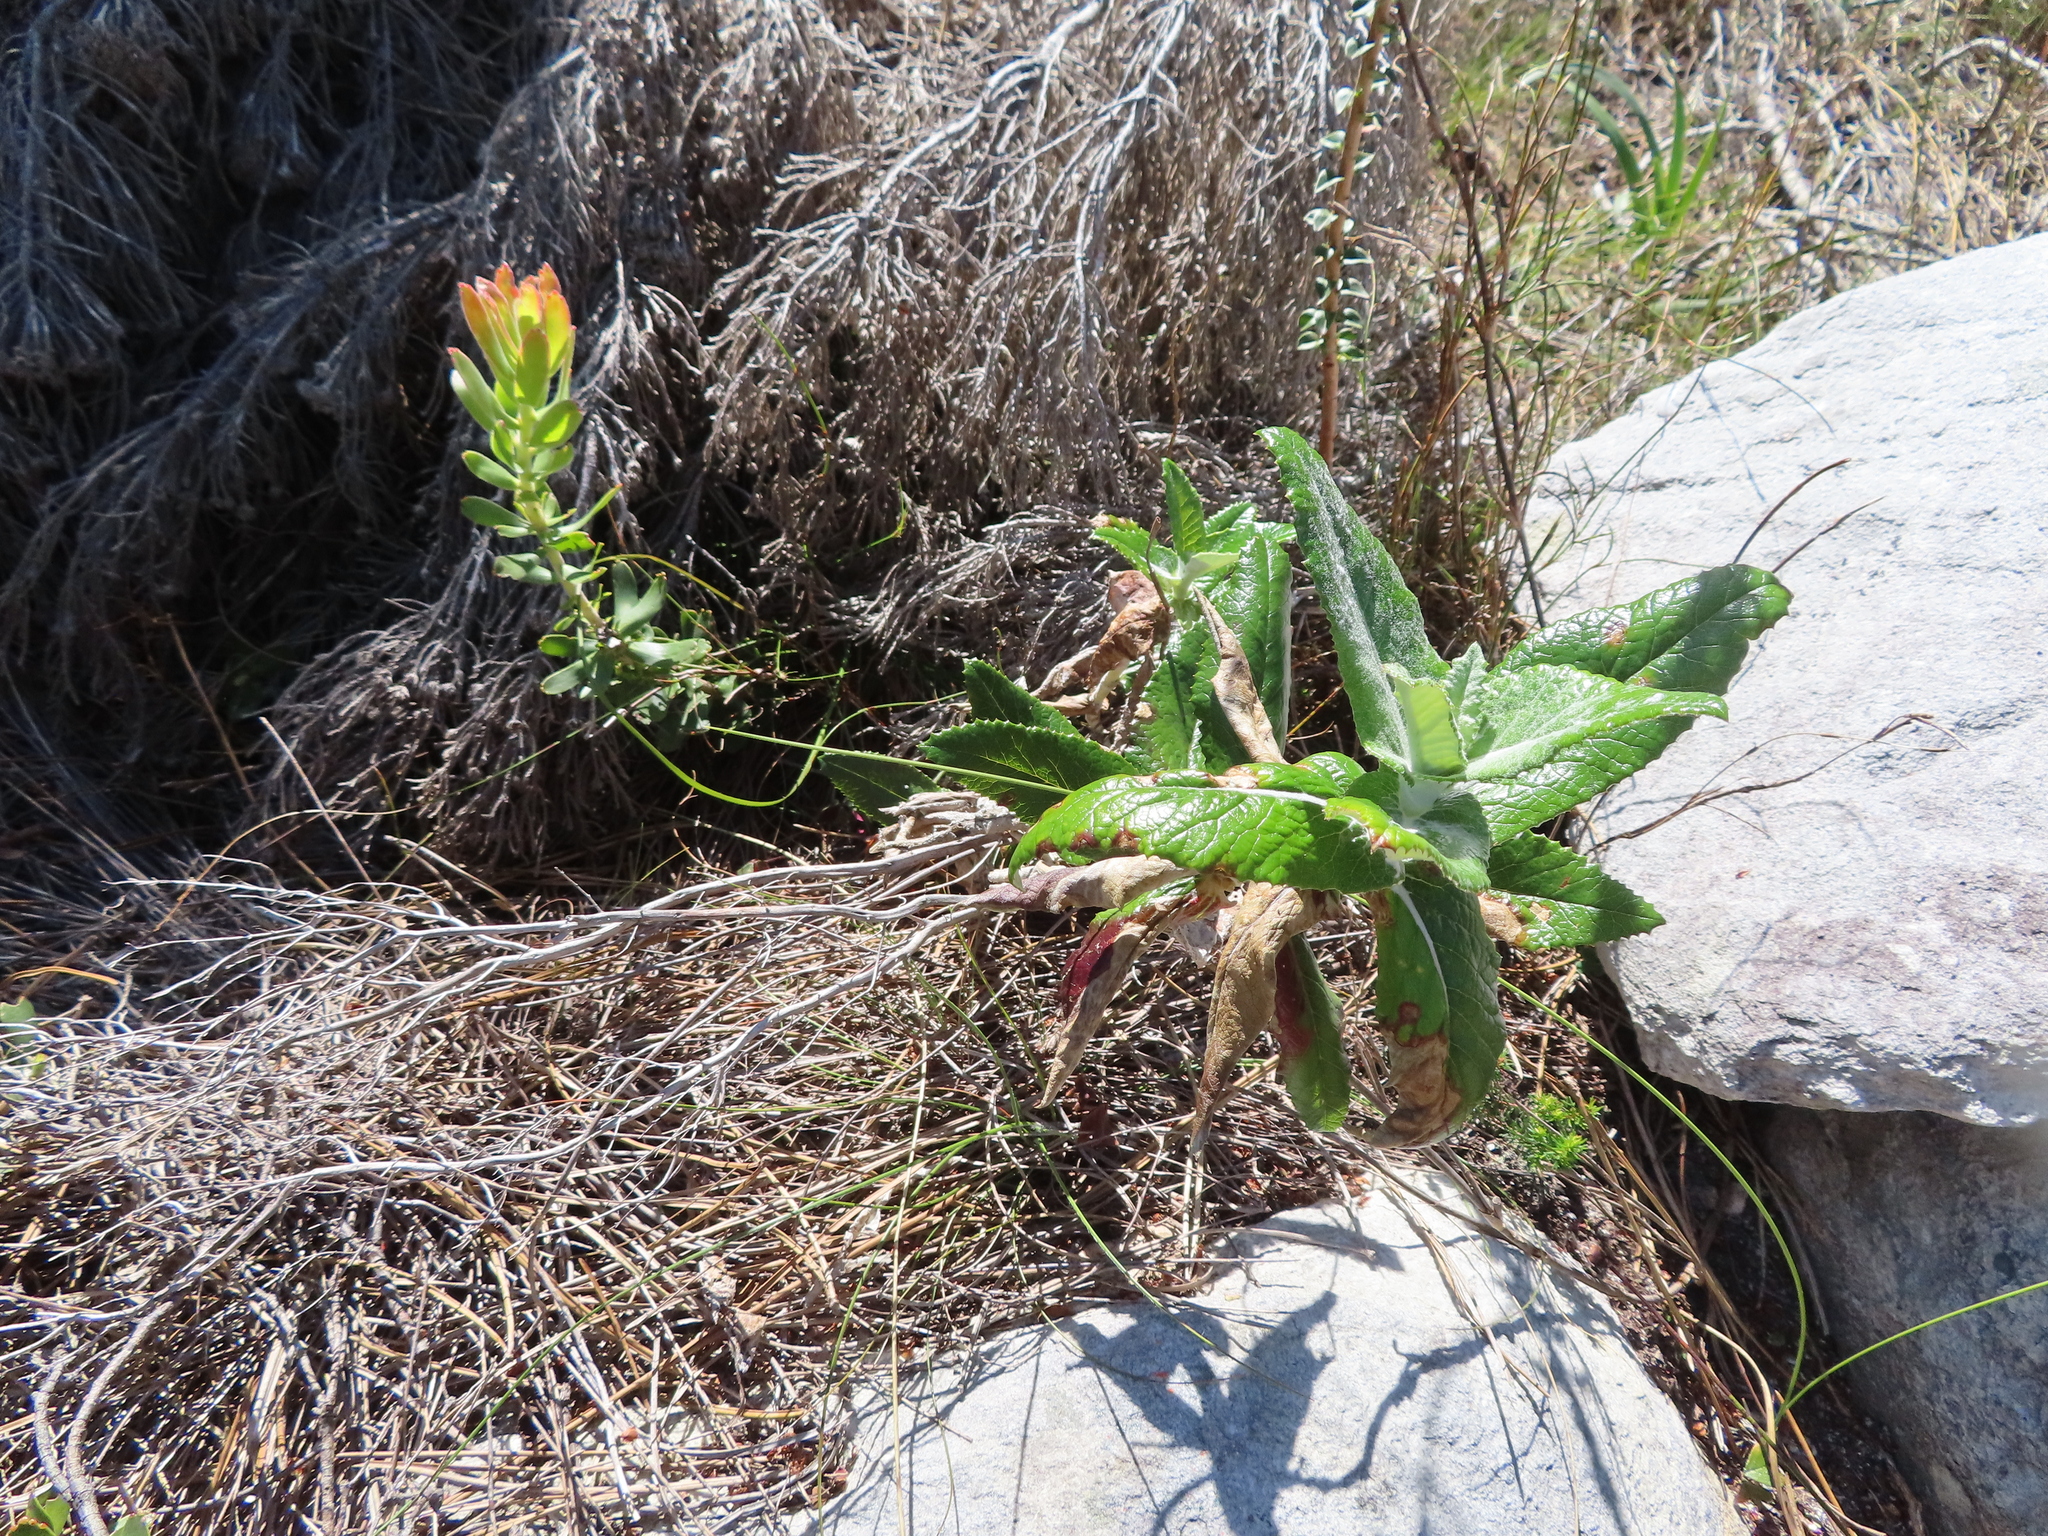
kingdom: Plantae
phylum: Tracheophyta
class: Magnoliopsida
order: Apiales
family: Apiaceae
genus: Hermas
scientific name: Hermas villosa
